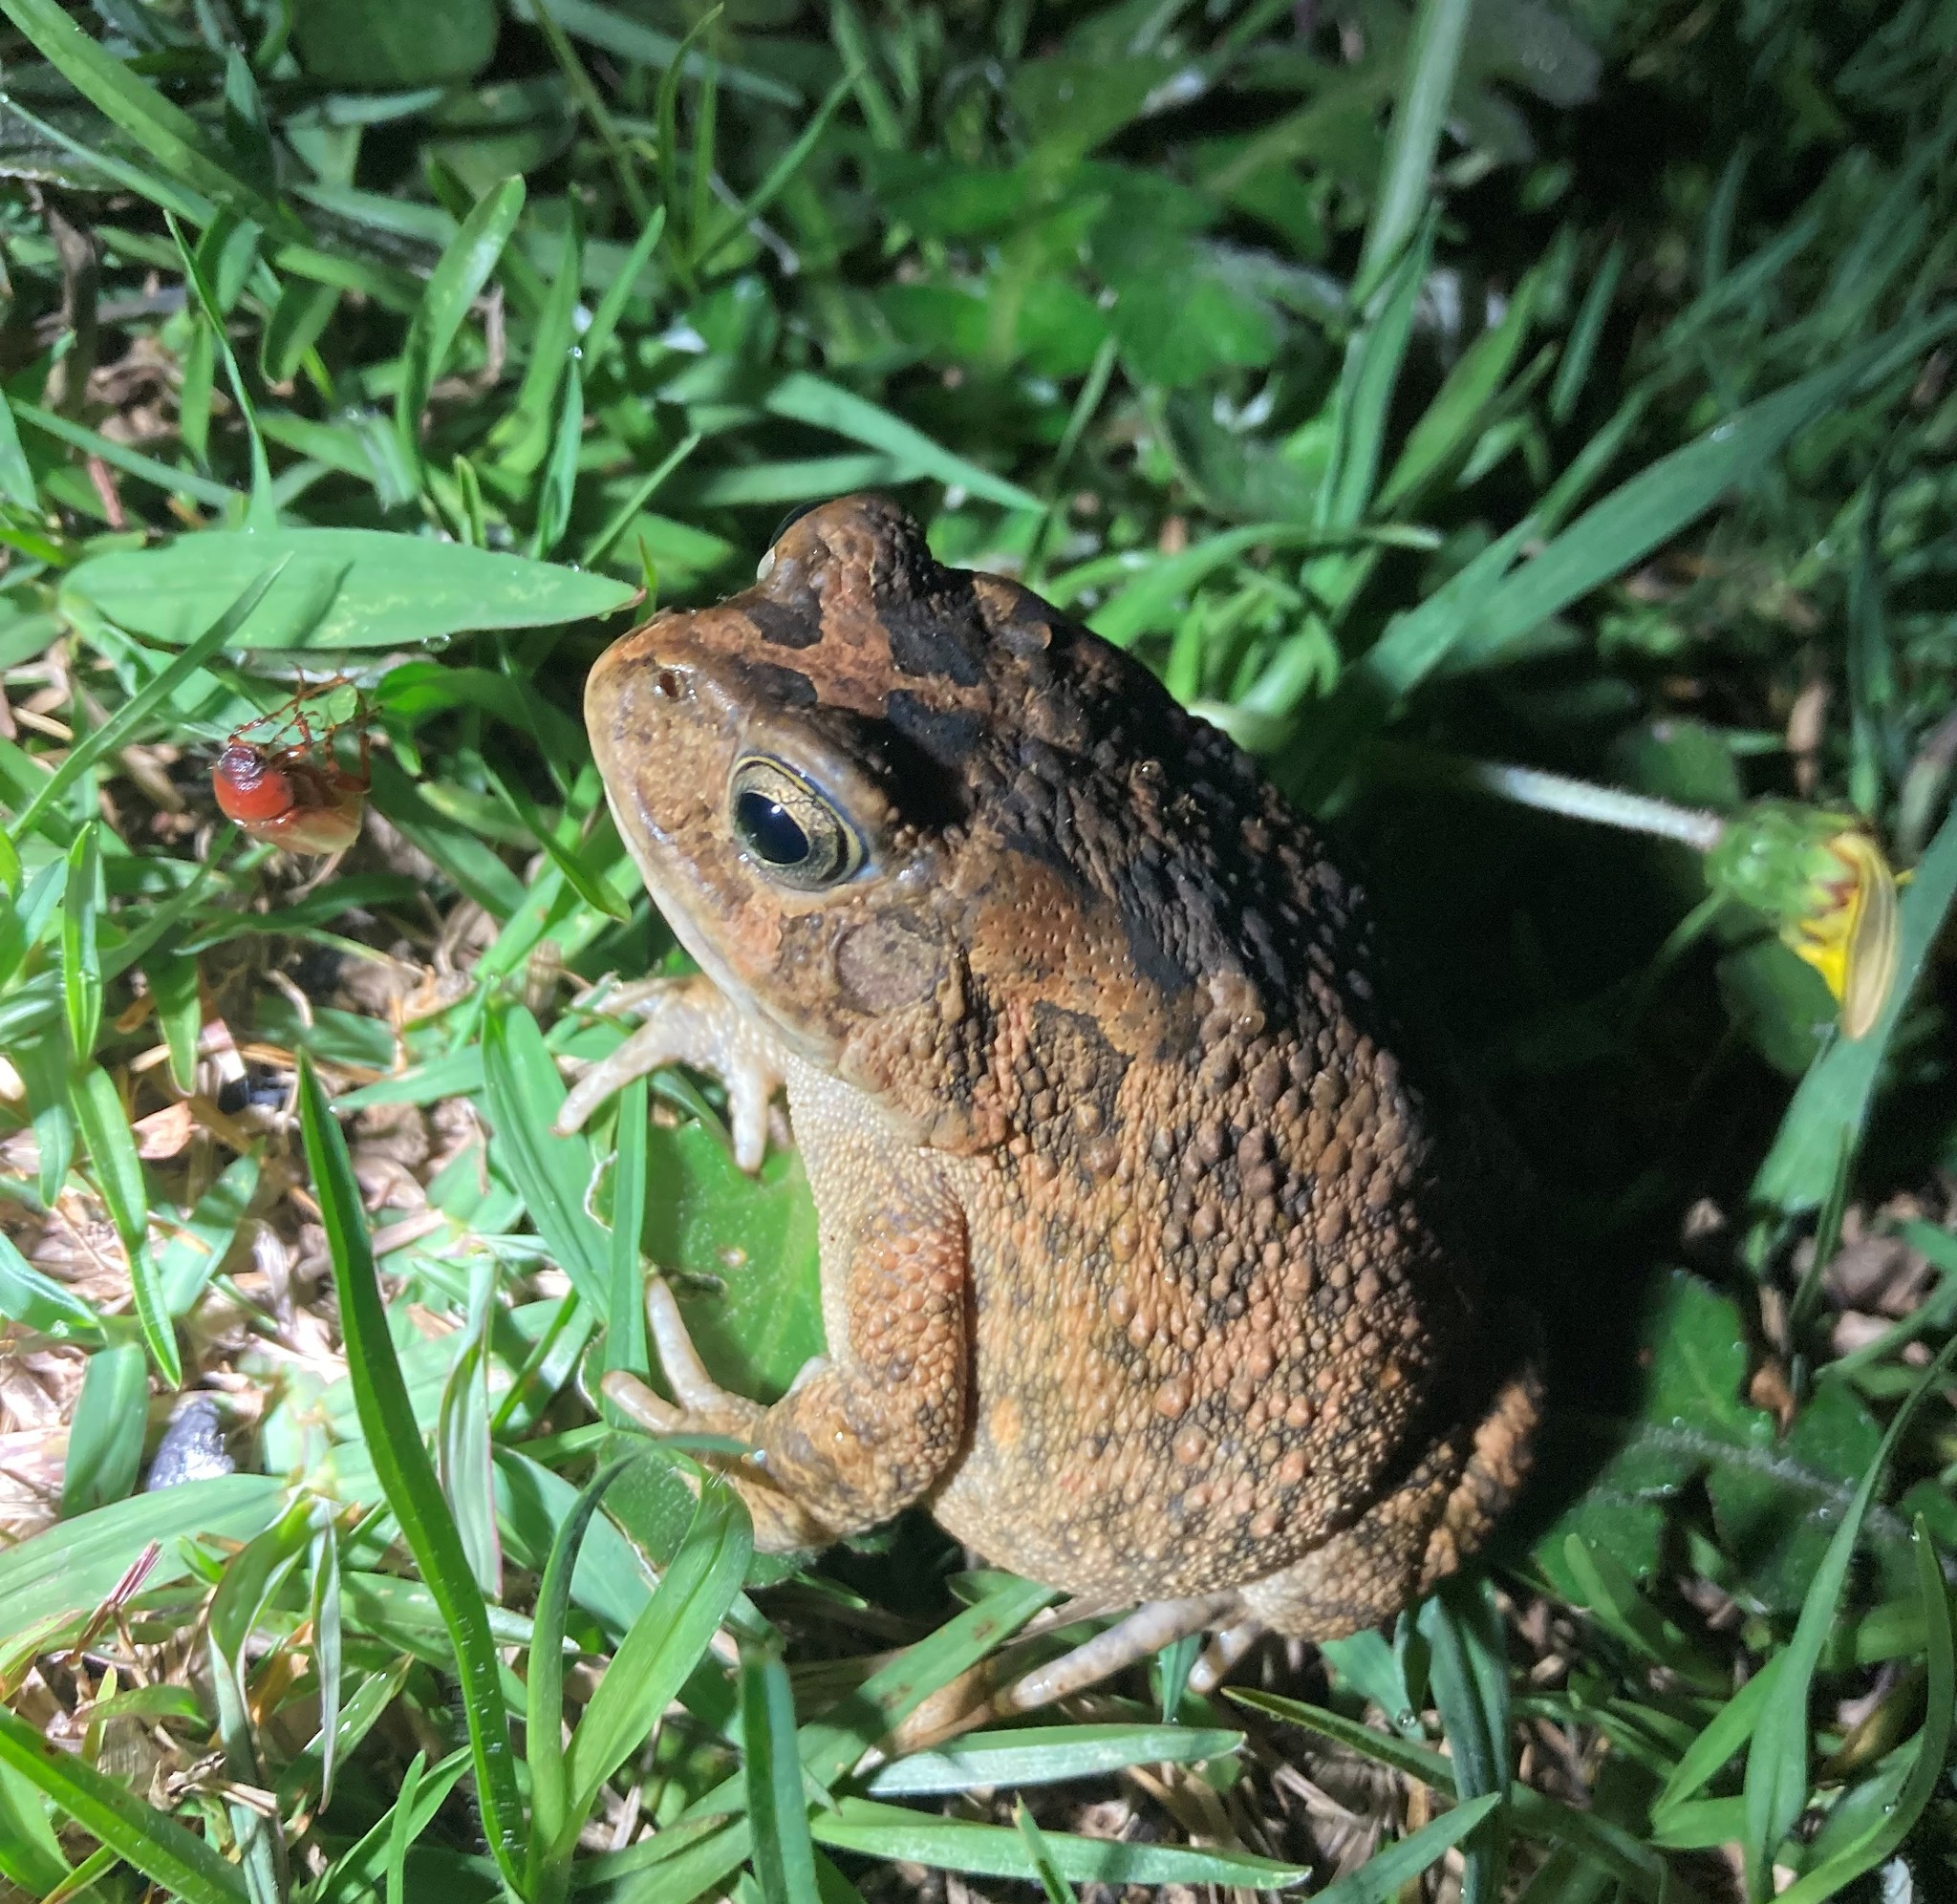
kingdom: Animalia
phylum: Chordata
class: Amphibia
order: Anura
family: Bufonidae
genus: Sclerophrys
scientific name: Sclerophrys gutturalis
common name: African common toad
